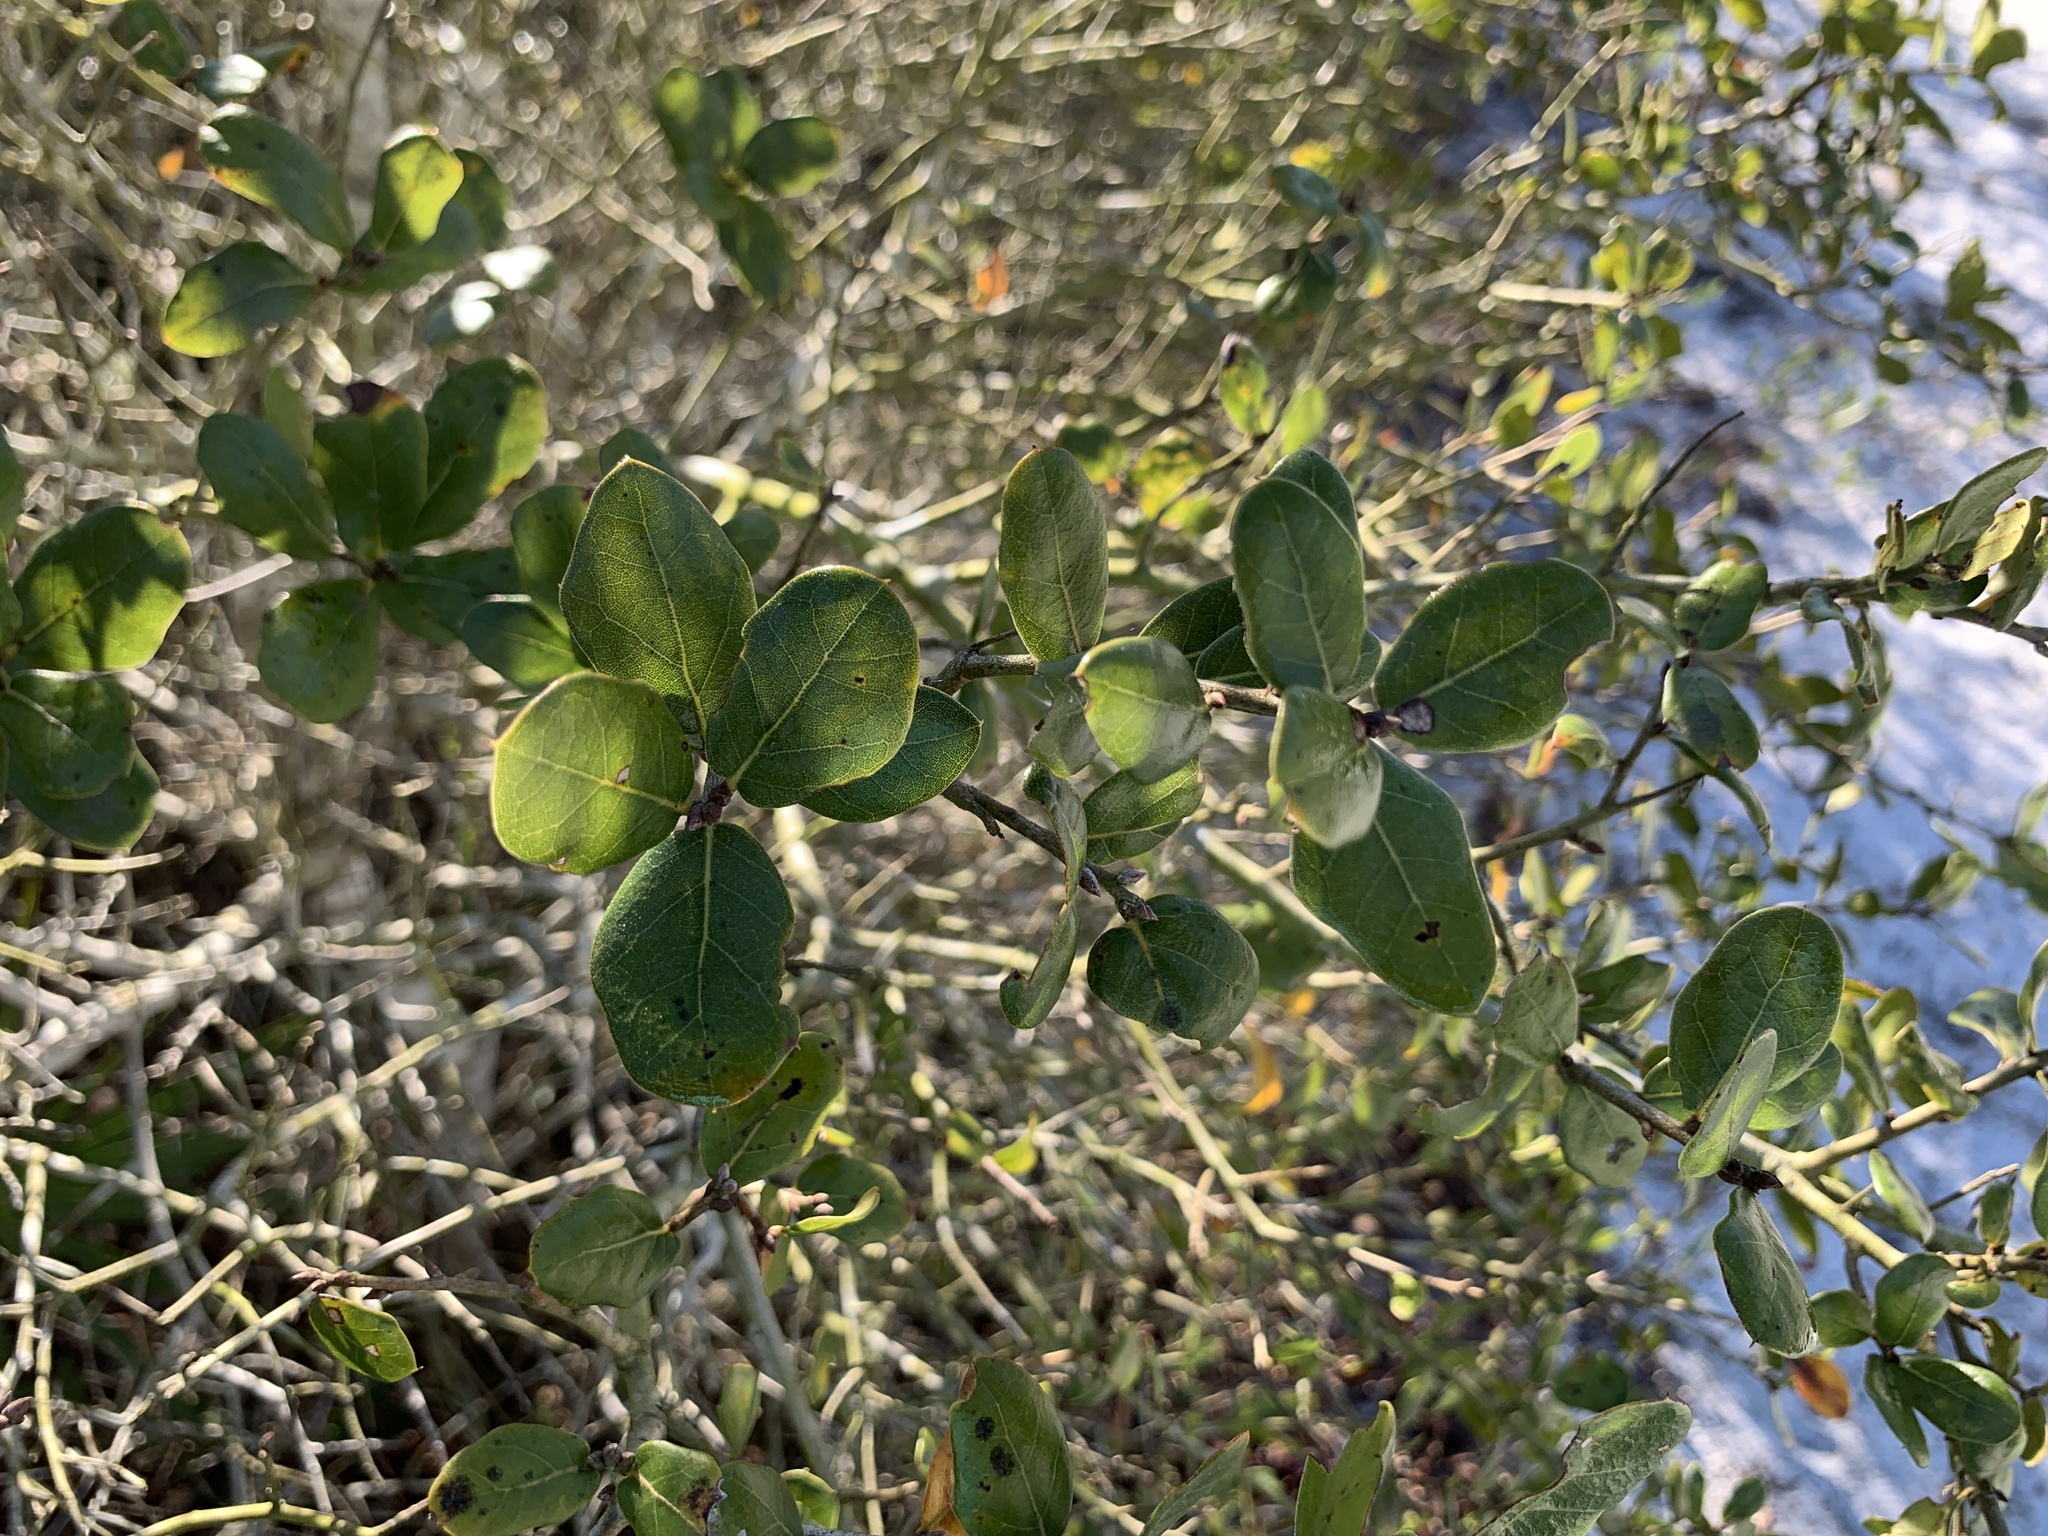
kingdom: Plantae
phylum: Tracheophyta
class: Magnoliopsida
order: Fagales
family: Fagaceae
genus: Quercus
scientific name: Quercus myrtifolia
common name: Myrtle oak
